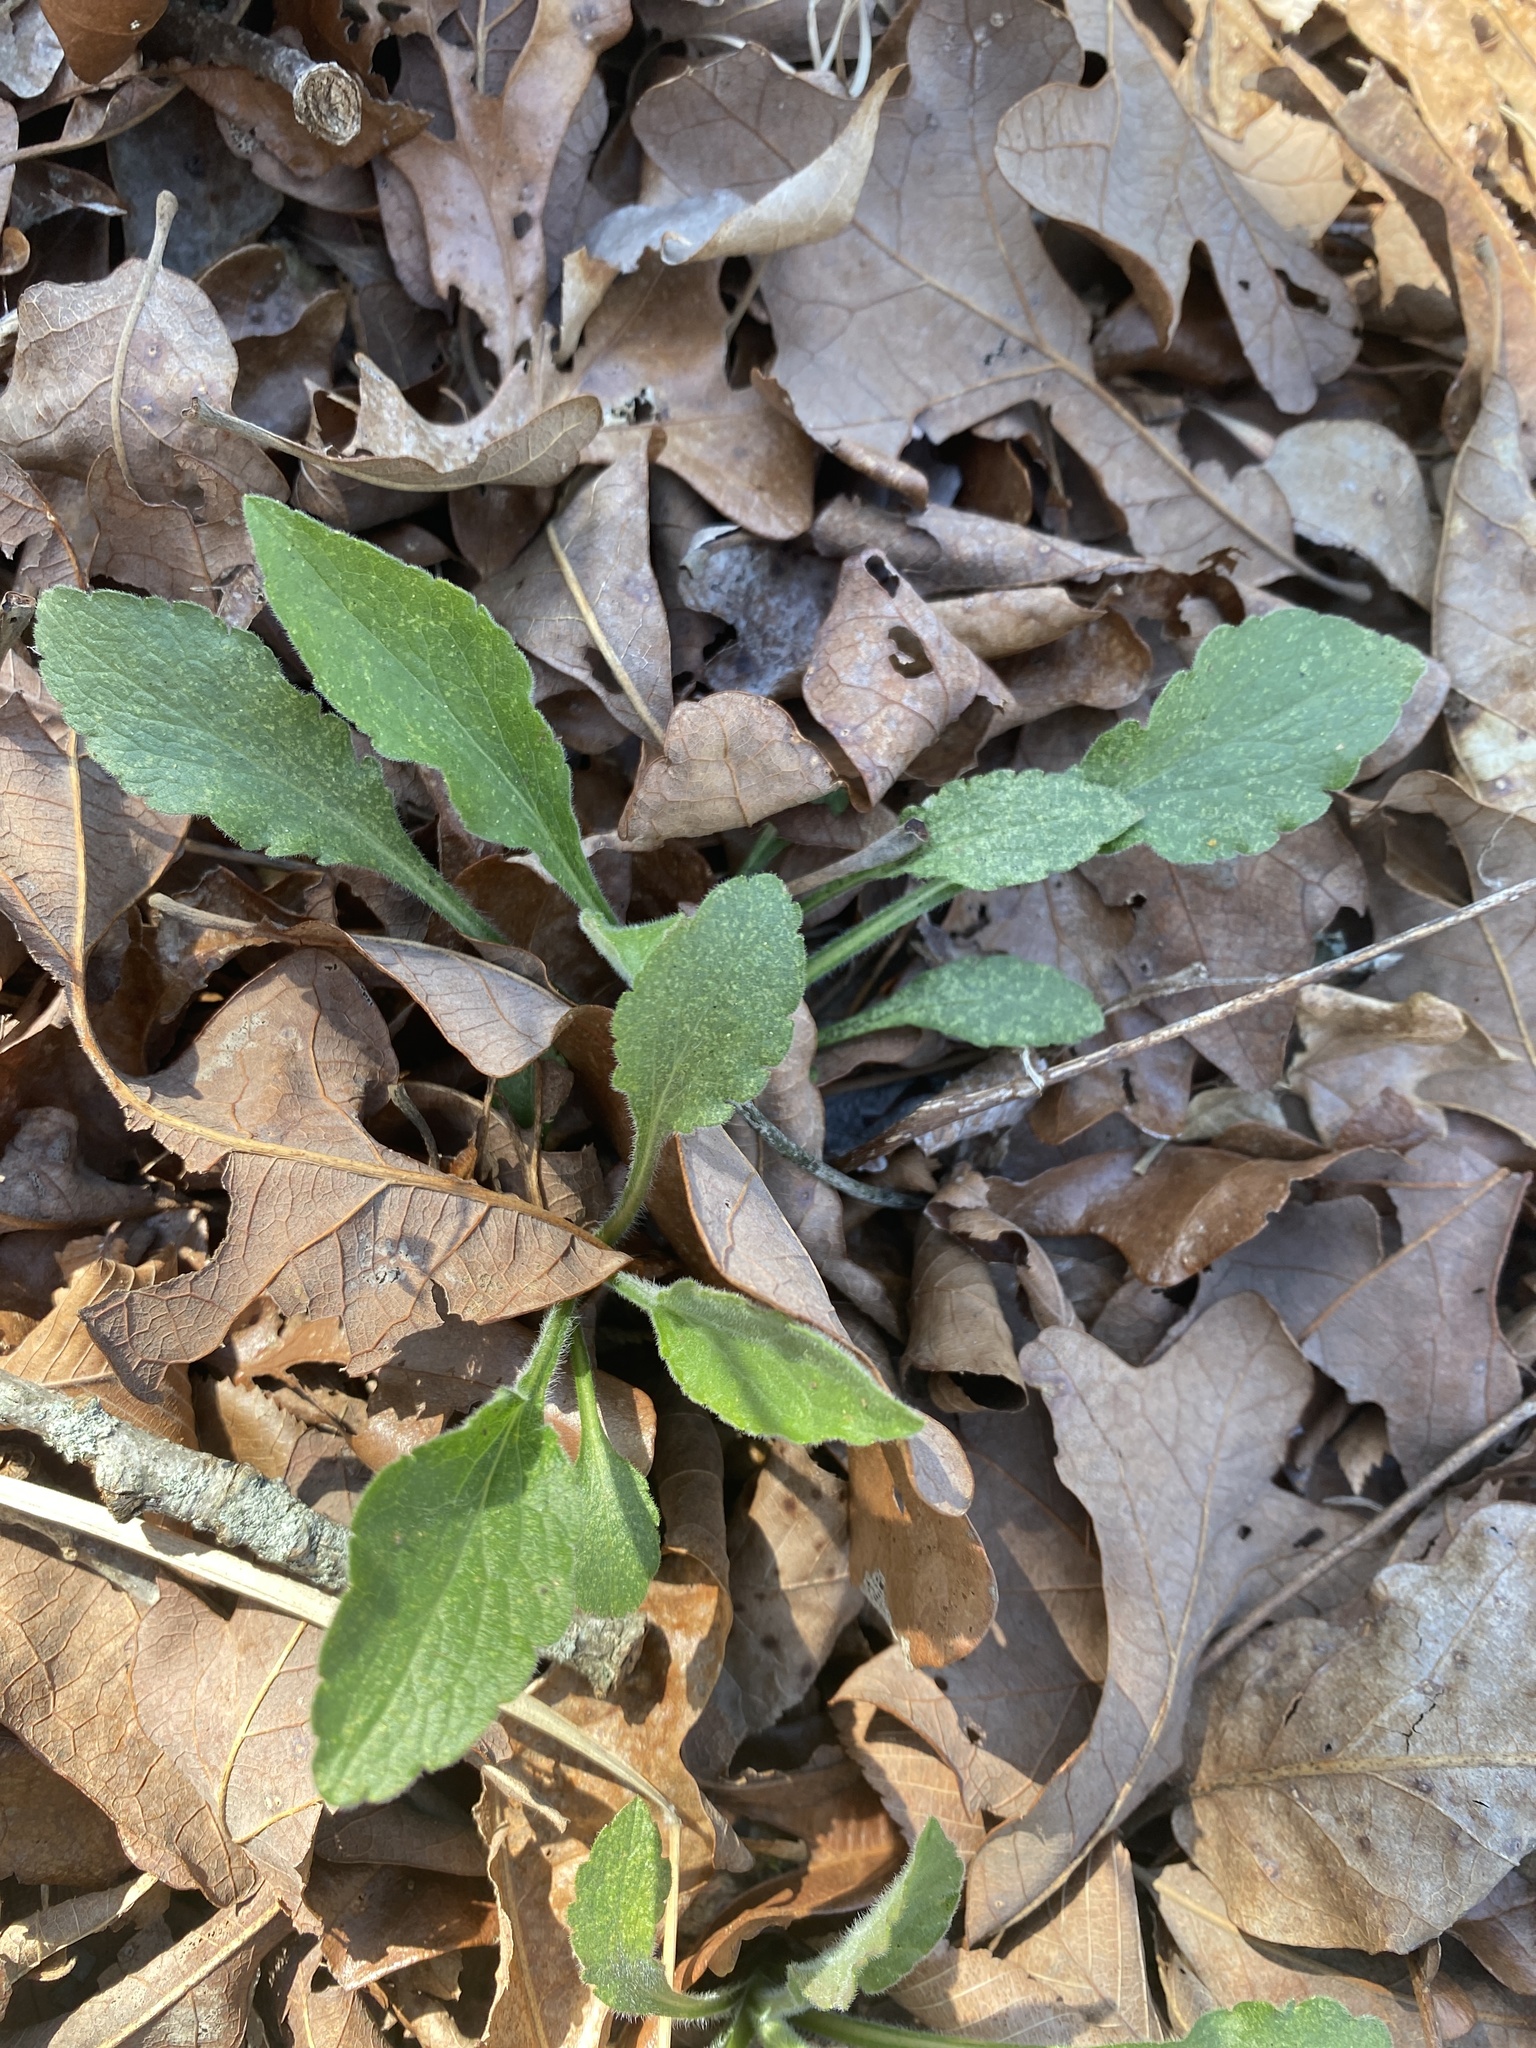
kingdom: Plantae
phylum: Tracheophyta
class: Magnoliopsida
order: Asterales
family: Asteraceae
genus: Solidago
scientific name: Solidago ulmifolia
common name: Elm-leaf goldenrod
